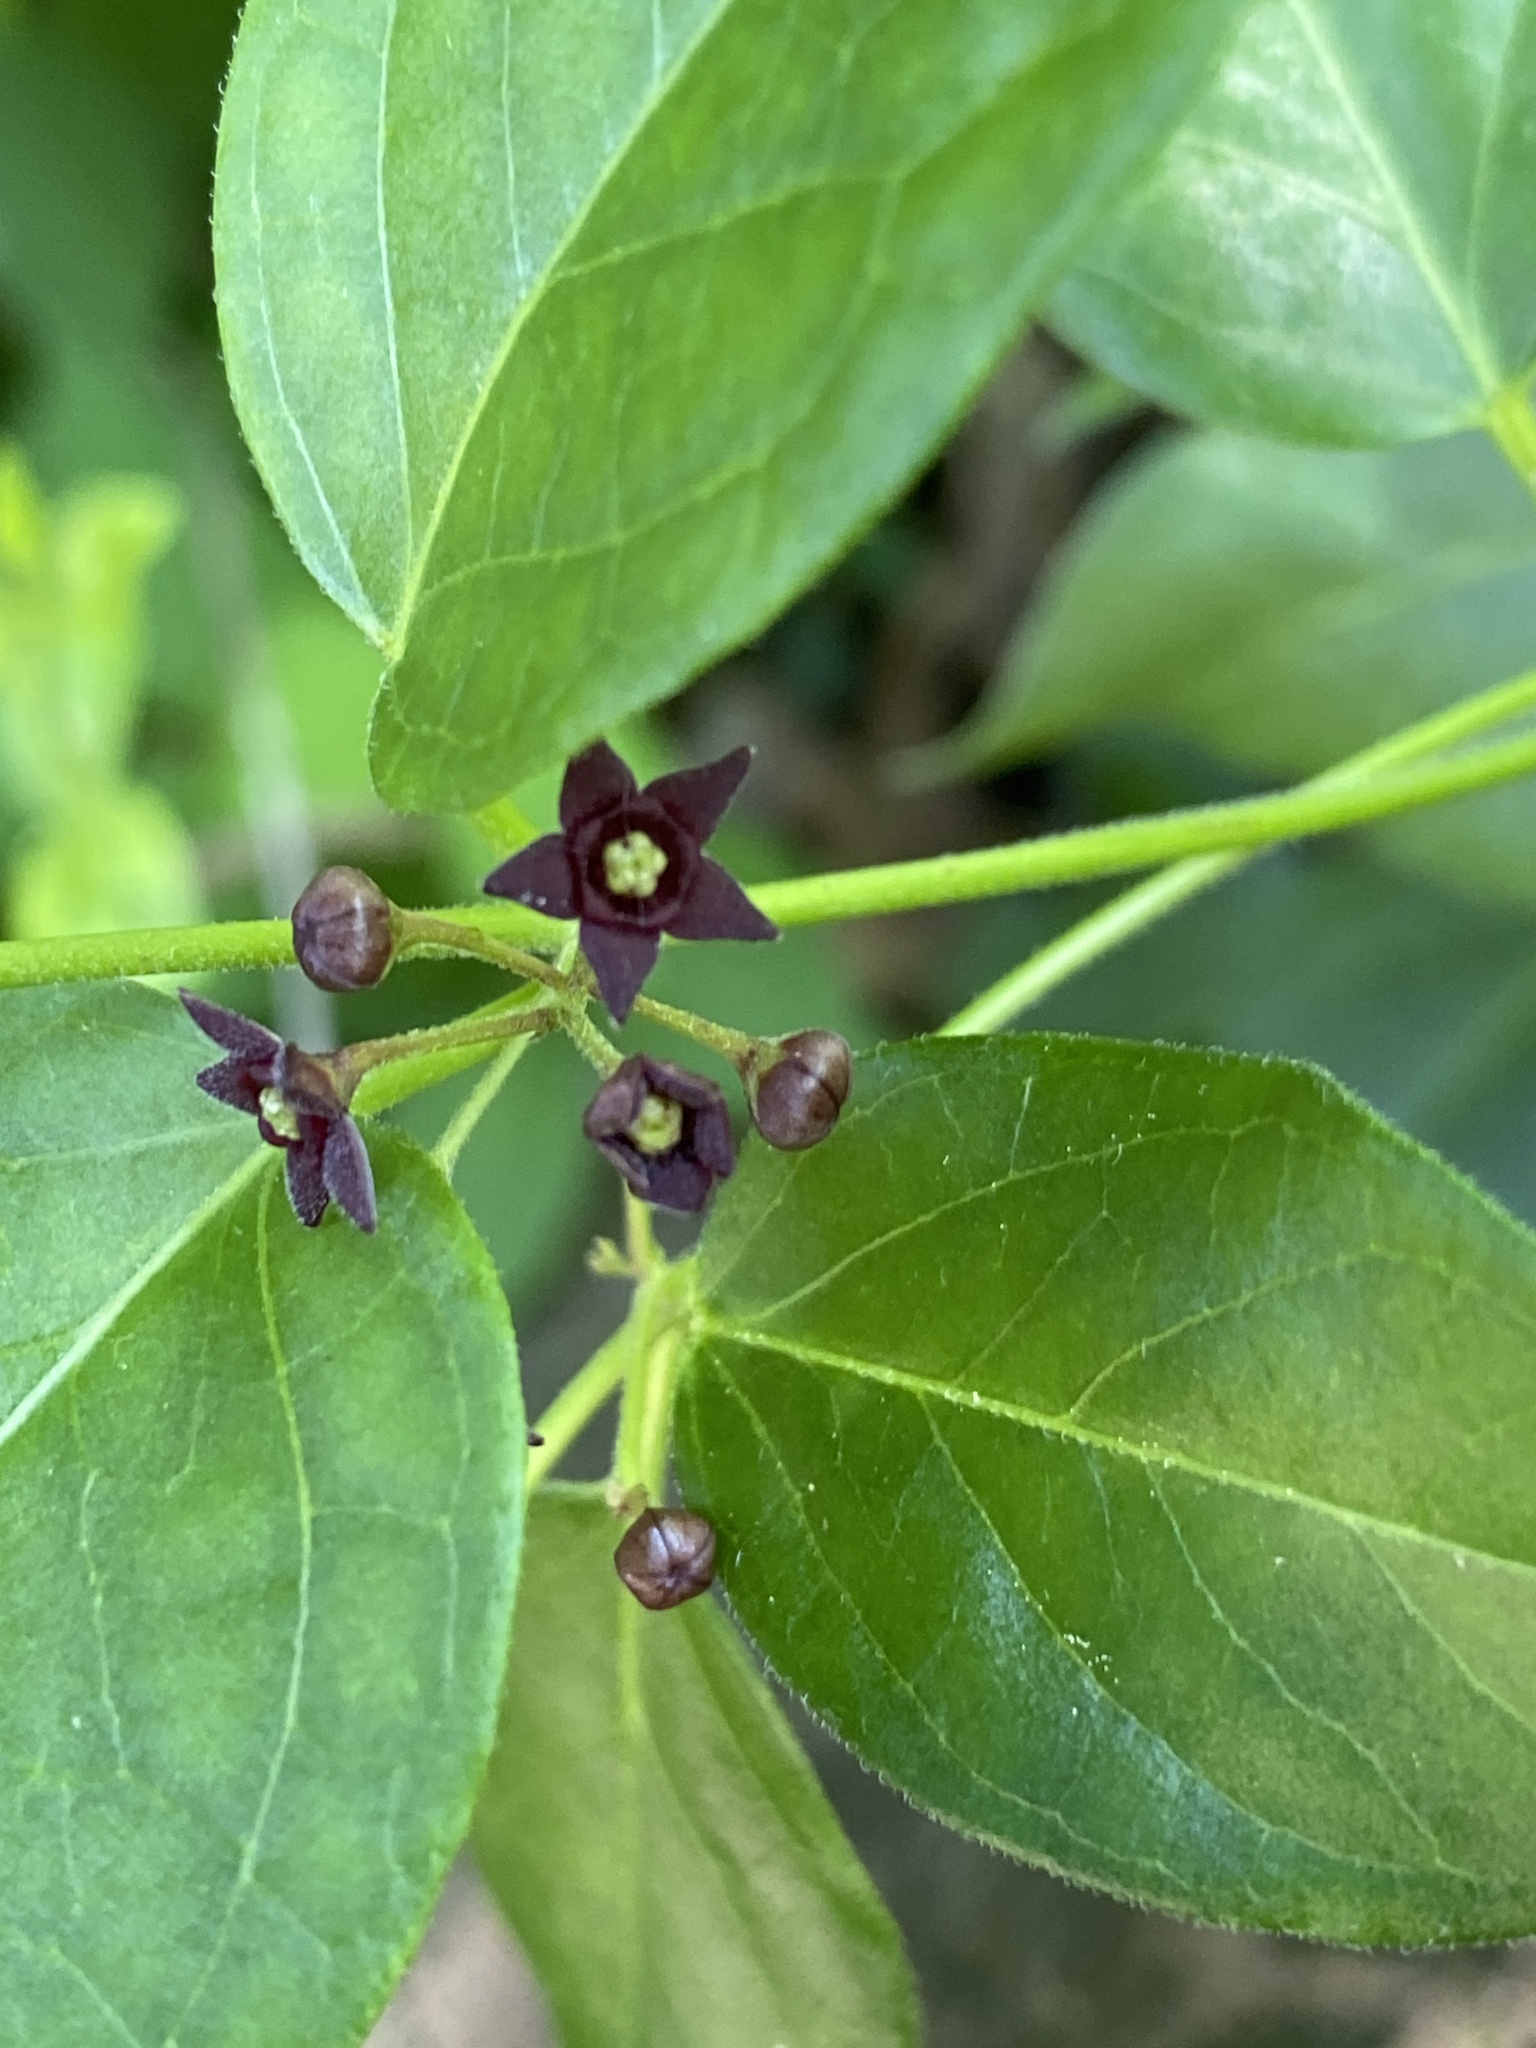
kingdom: Plantae
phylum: Tracheophyta
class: Magnoliopsida
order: Gentianales
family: Apocynaceae
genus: Vincetoxicum
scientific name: Vincetoxicum nigrum
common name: Black swallow-wort
